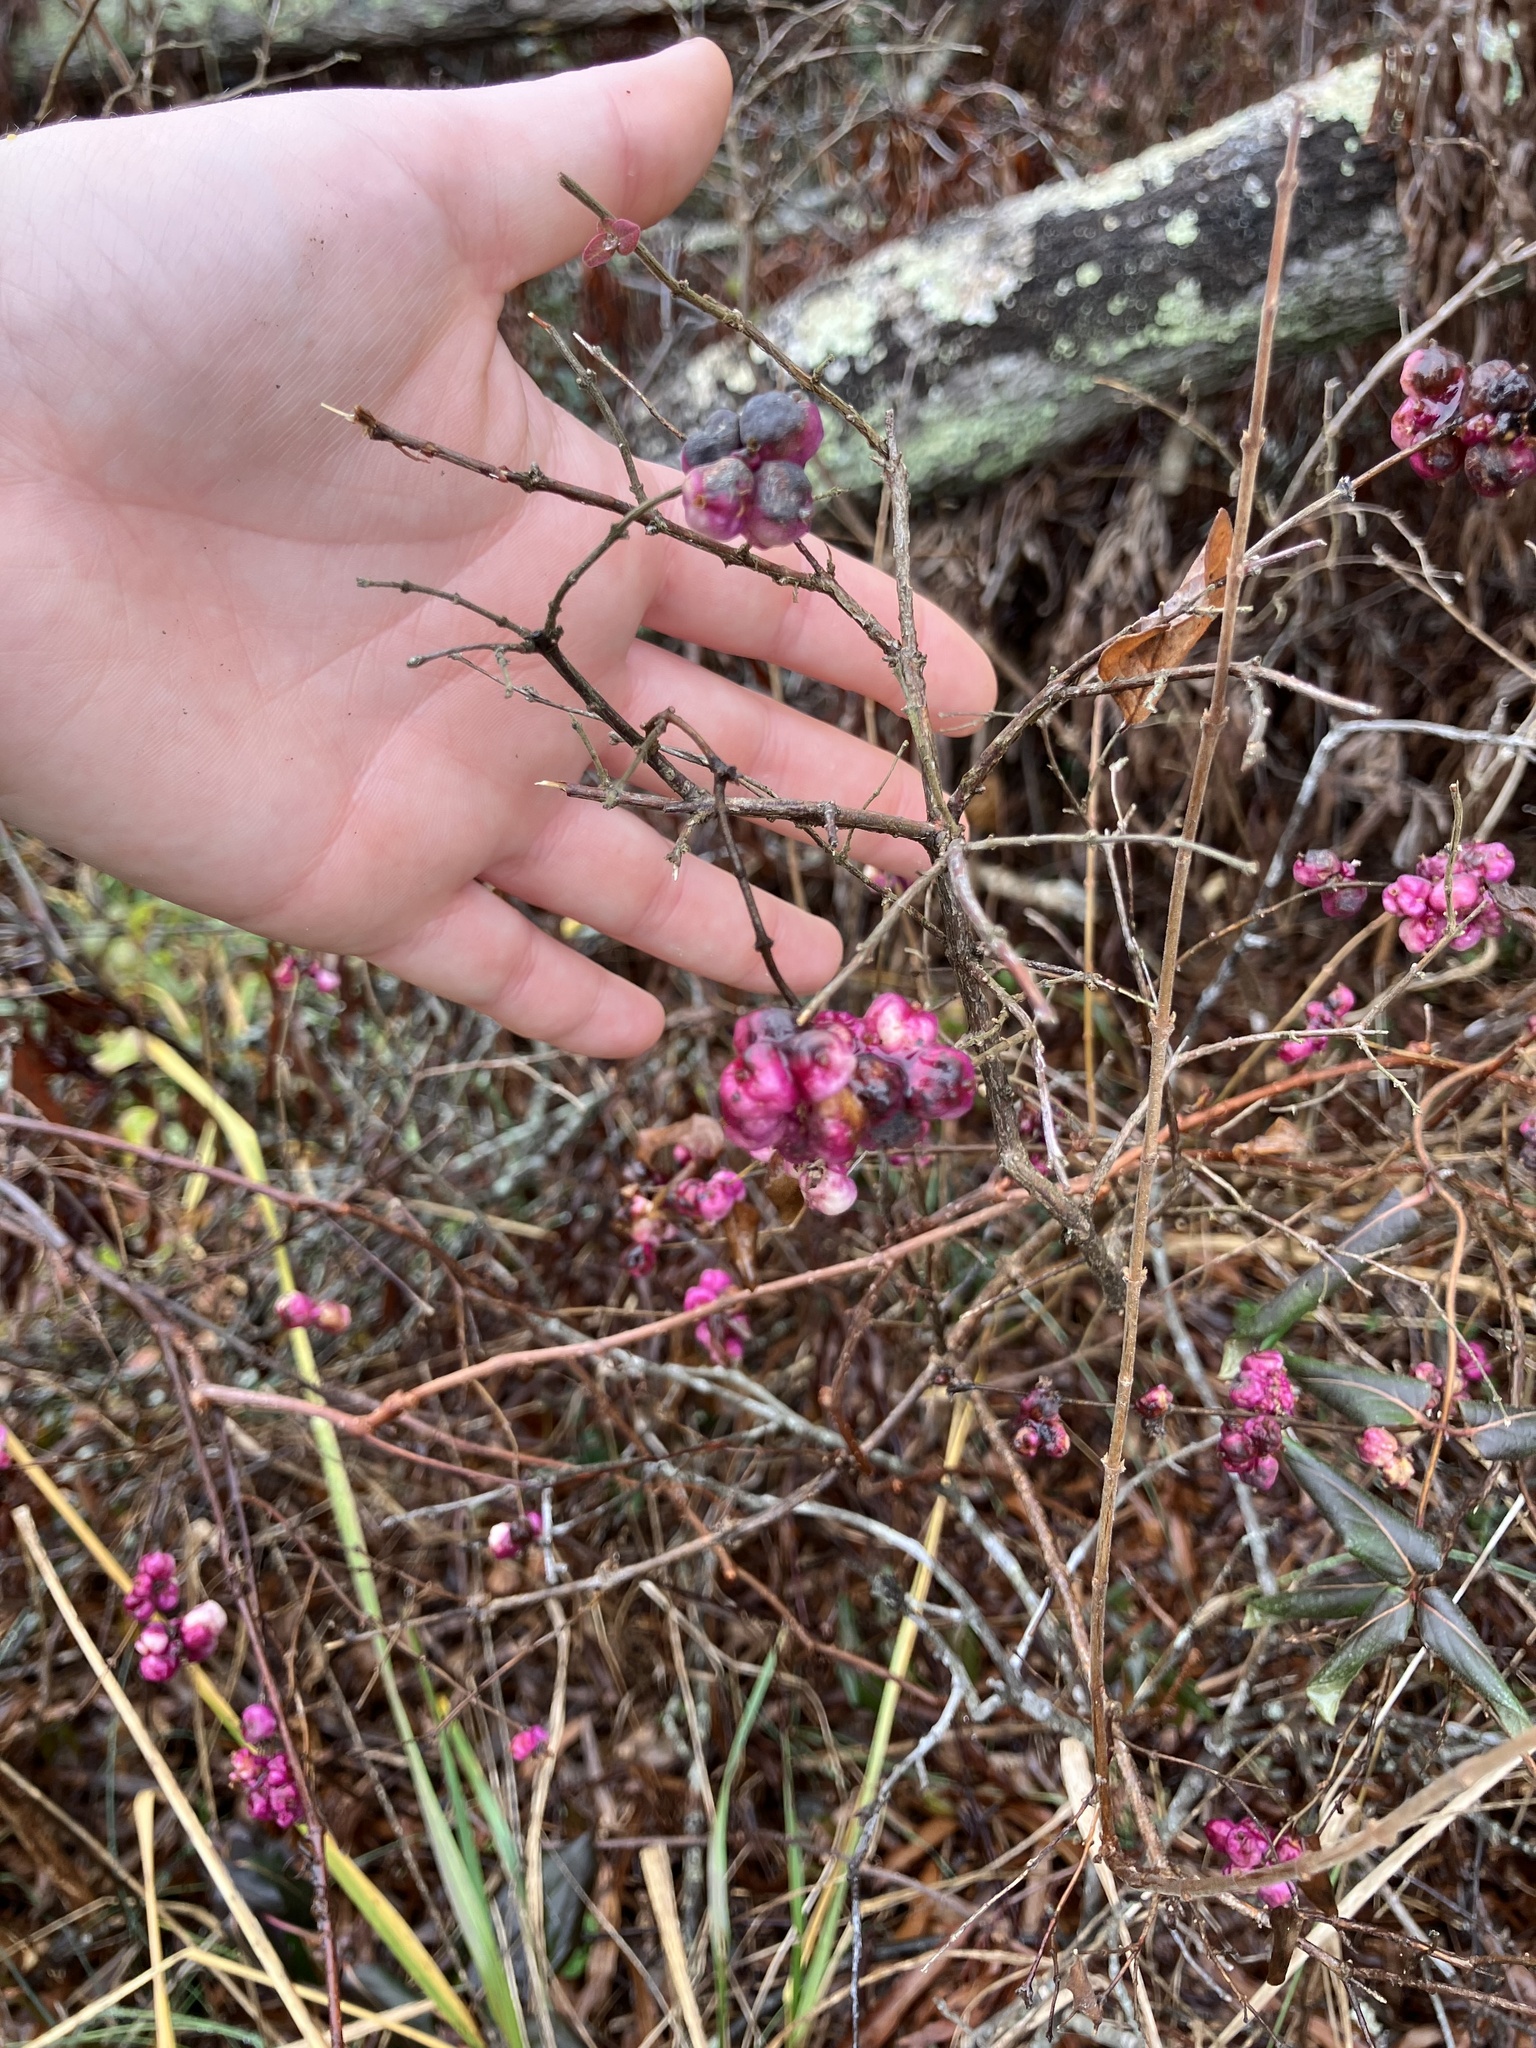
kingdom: Plantae
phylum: Tracheophyta
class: Magnoliopsida
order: Dipsacales
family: Caprifoliaceae
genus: Symphoricarpos
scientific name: Symphoricarpos orbiculatus
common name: Coralberry
